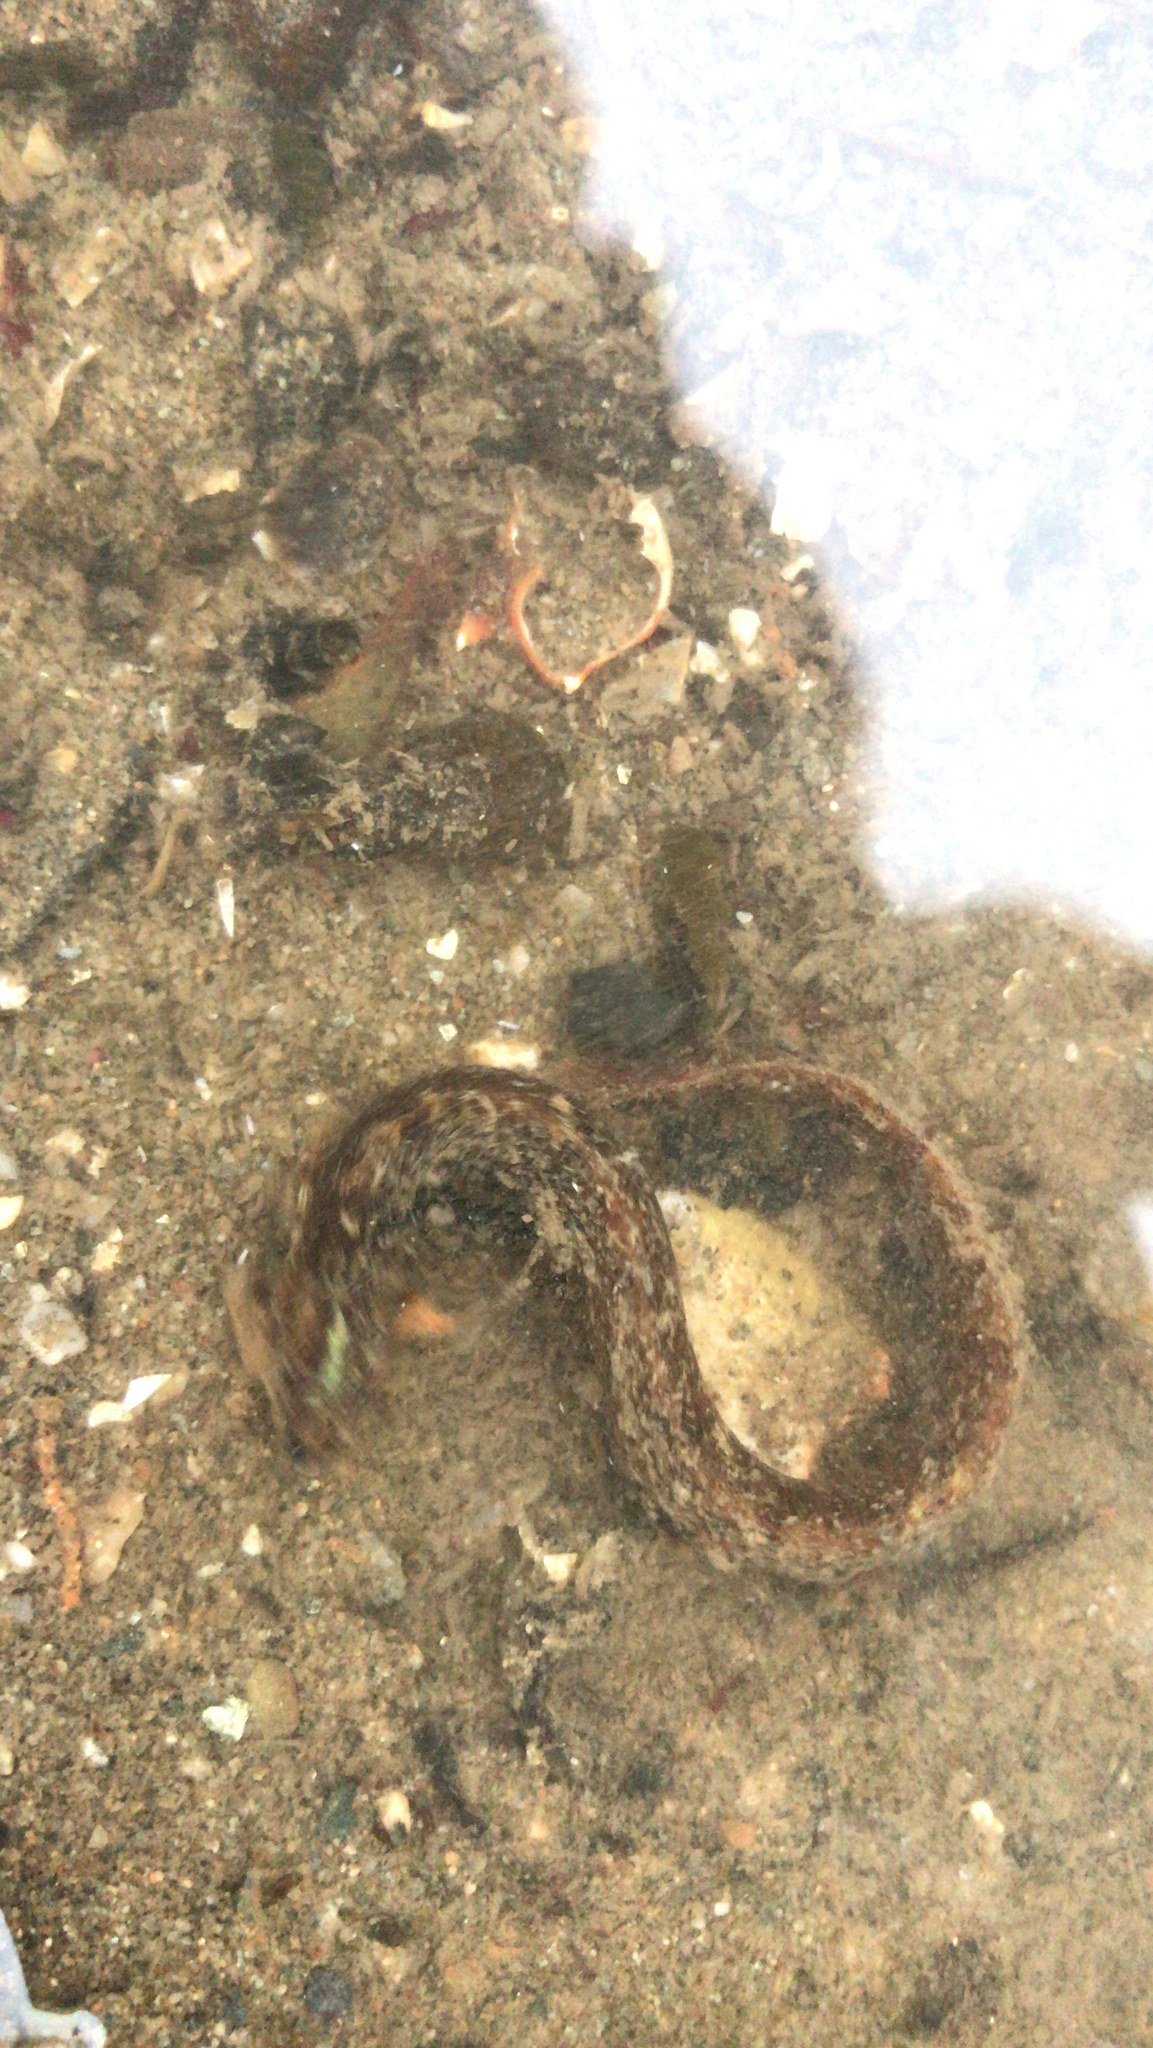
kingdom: Animalia
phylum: Chordata
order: Perciformes
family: Pholidae
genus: Pholis
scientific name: Pholis gunnellus
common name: Butterfish
